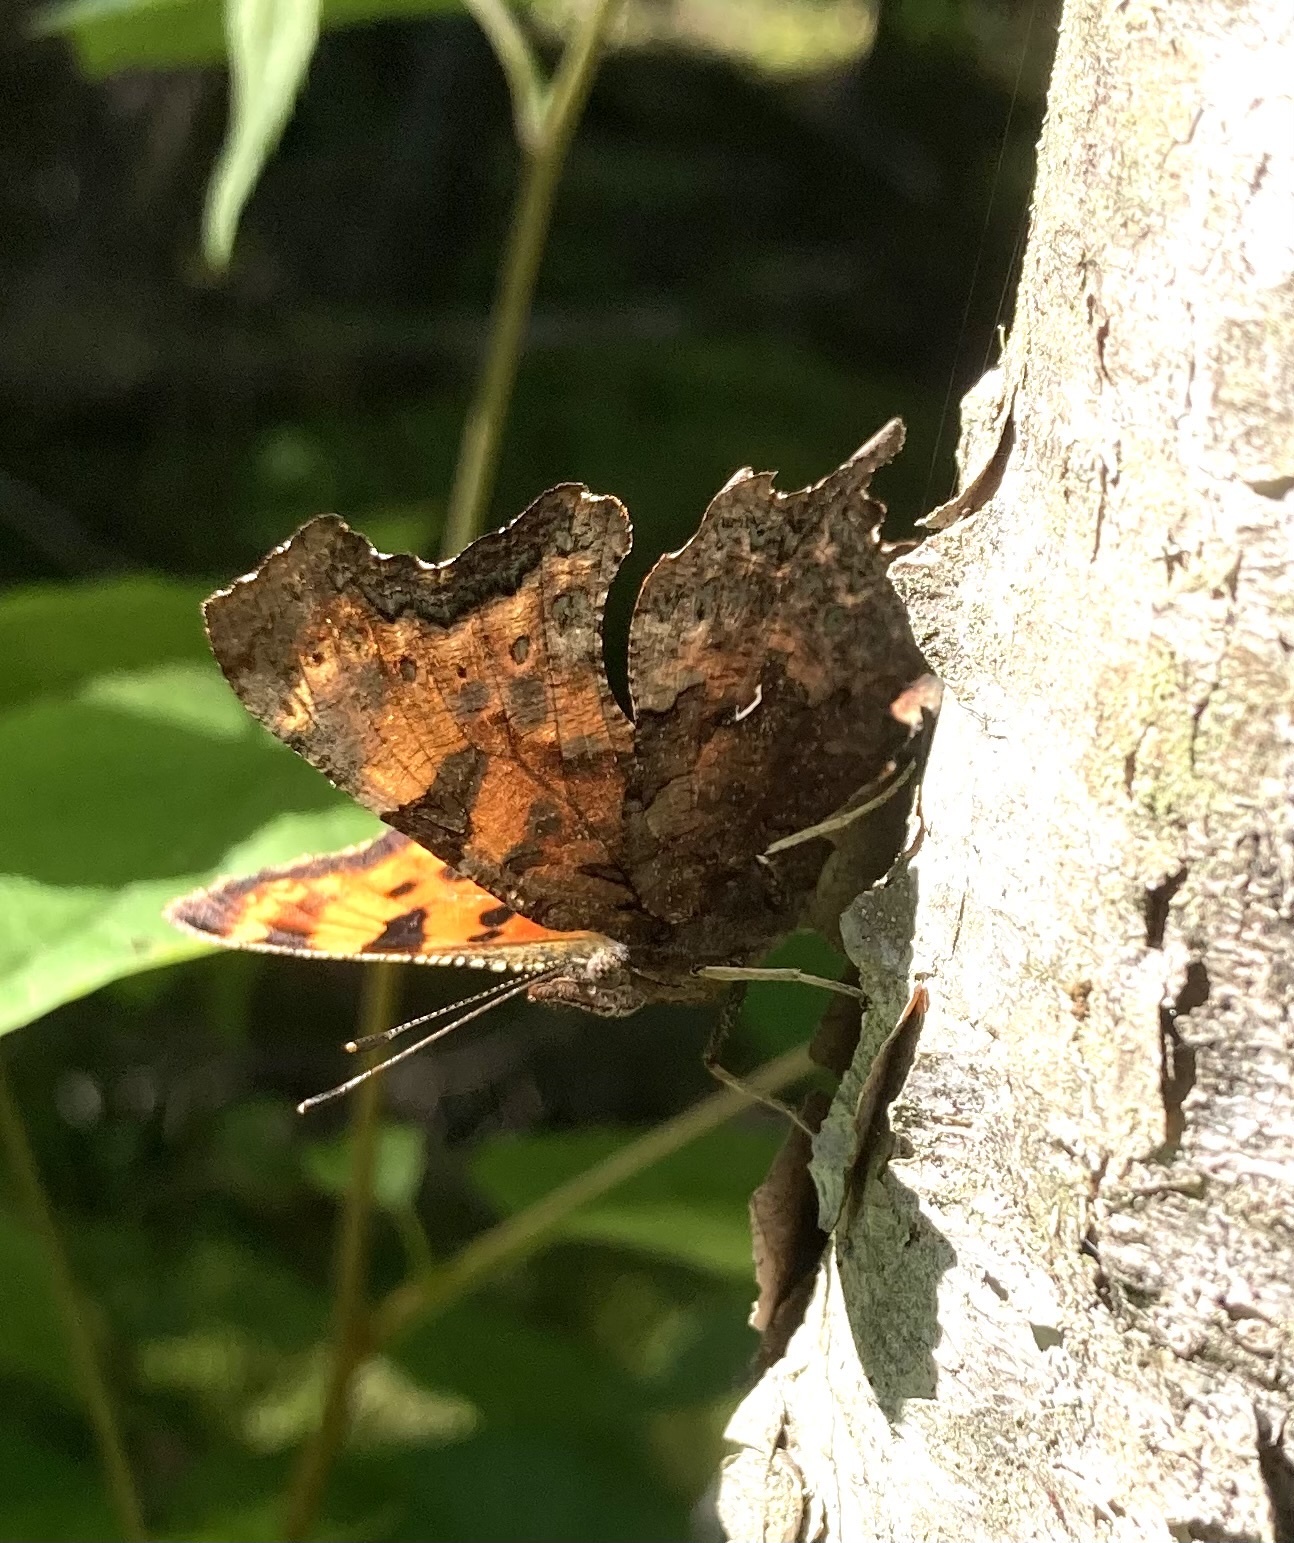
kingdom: Animalia
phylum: Arthropoda
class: Insecta
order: Lepidoptera
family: Nymphalidae
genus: Polygonia
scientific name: Polygonia comma
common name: Eastern comma
